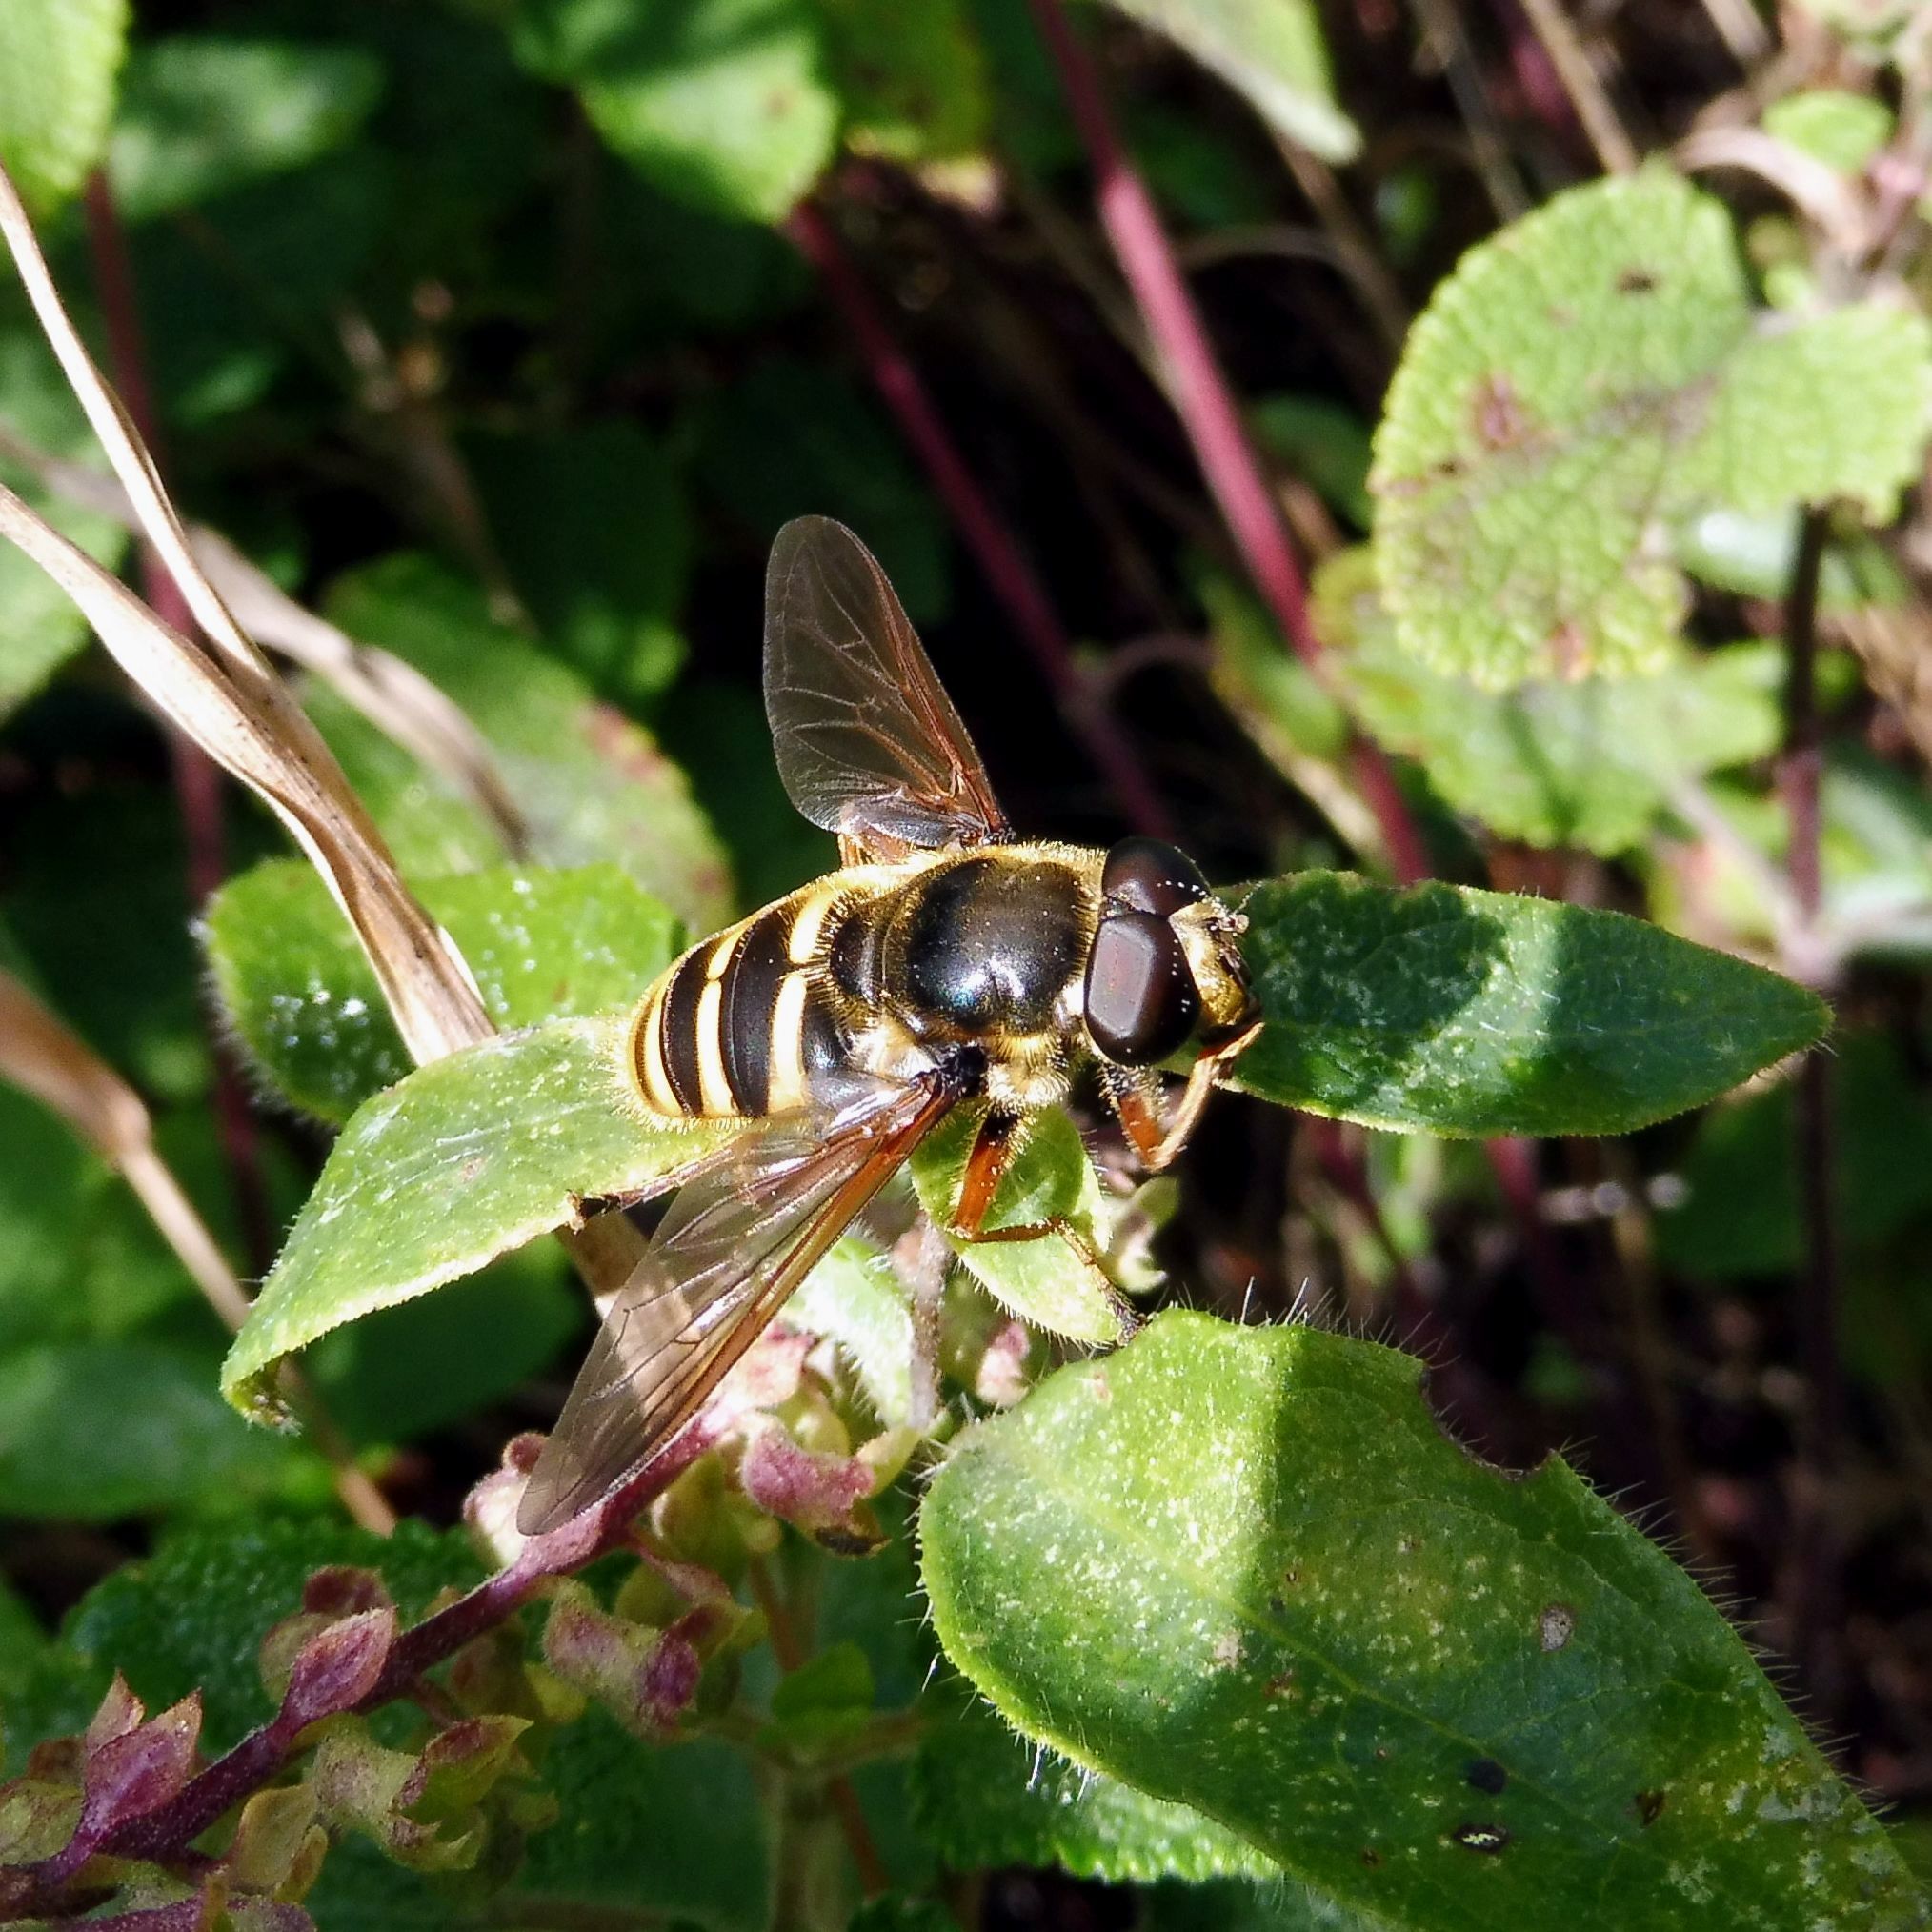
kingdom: Animalia
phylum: Arthropoda
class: Insecta
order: Diptera
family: Syrphidae
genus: Sericomyia
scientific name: Sericomyia silentis
